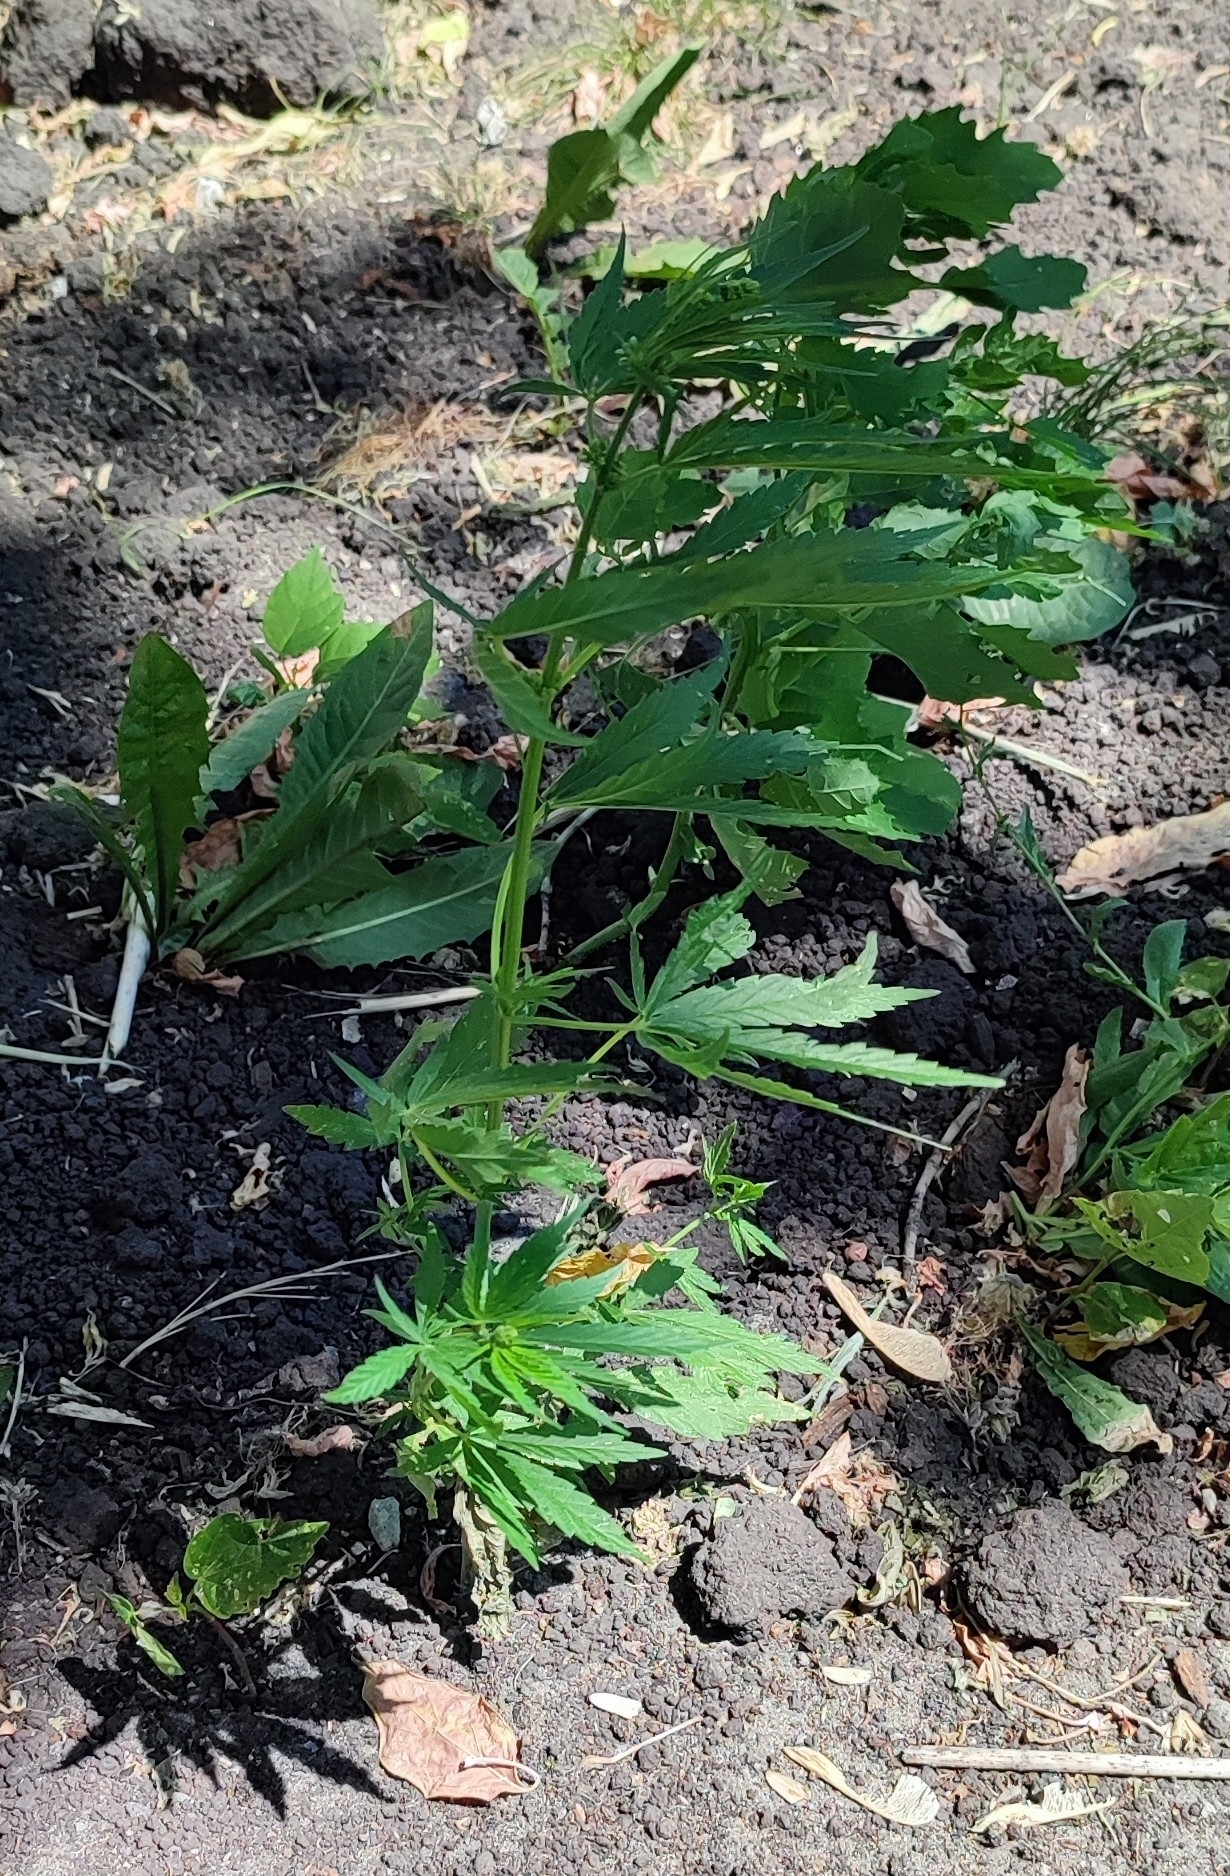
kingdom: Plantae
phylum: Tracheophyta
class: Magnoliopsida
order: Rosales
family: Cannabaceae
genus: Cannabis
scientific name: Cannabis sativa
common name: Hemp
